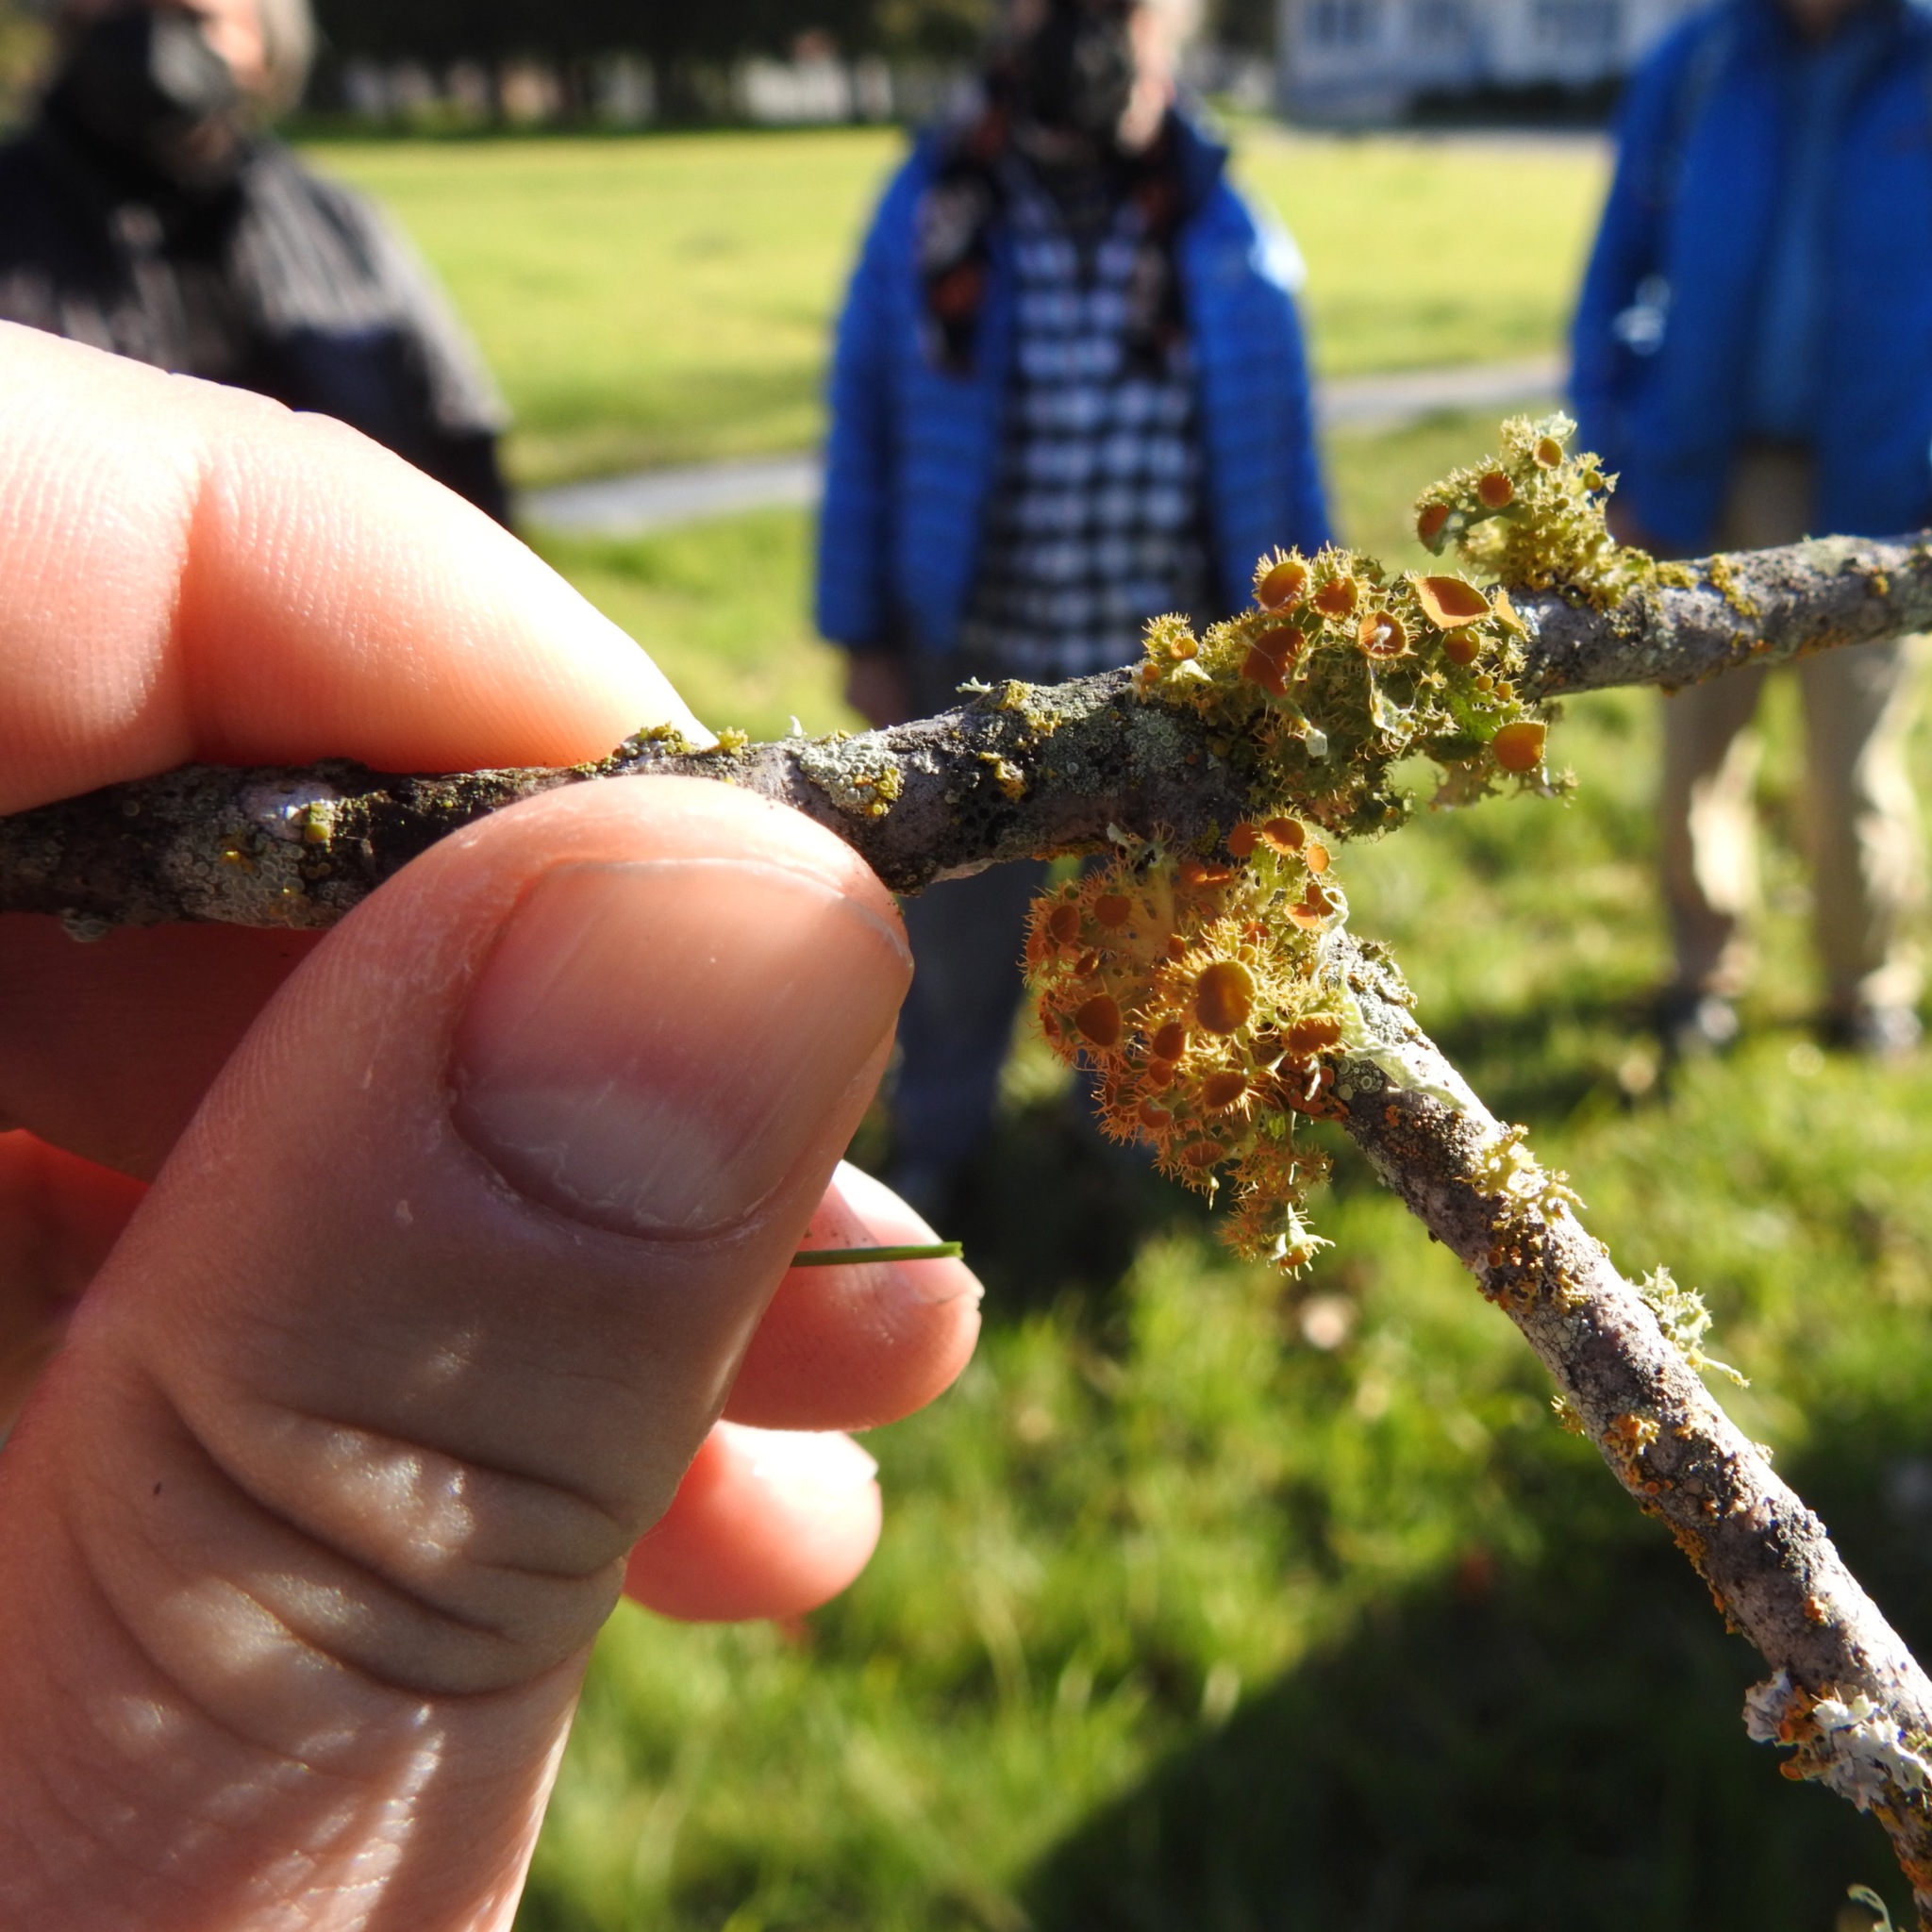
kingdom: Fungi
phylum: Ascomycota
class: Lecanoromycetes
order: Teloschistales
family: Teloschistaceae
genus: Niorma
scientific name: Niorma chrysophthalma
